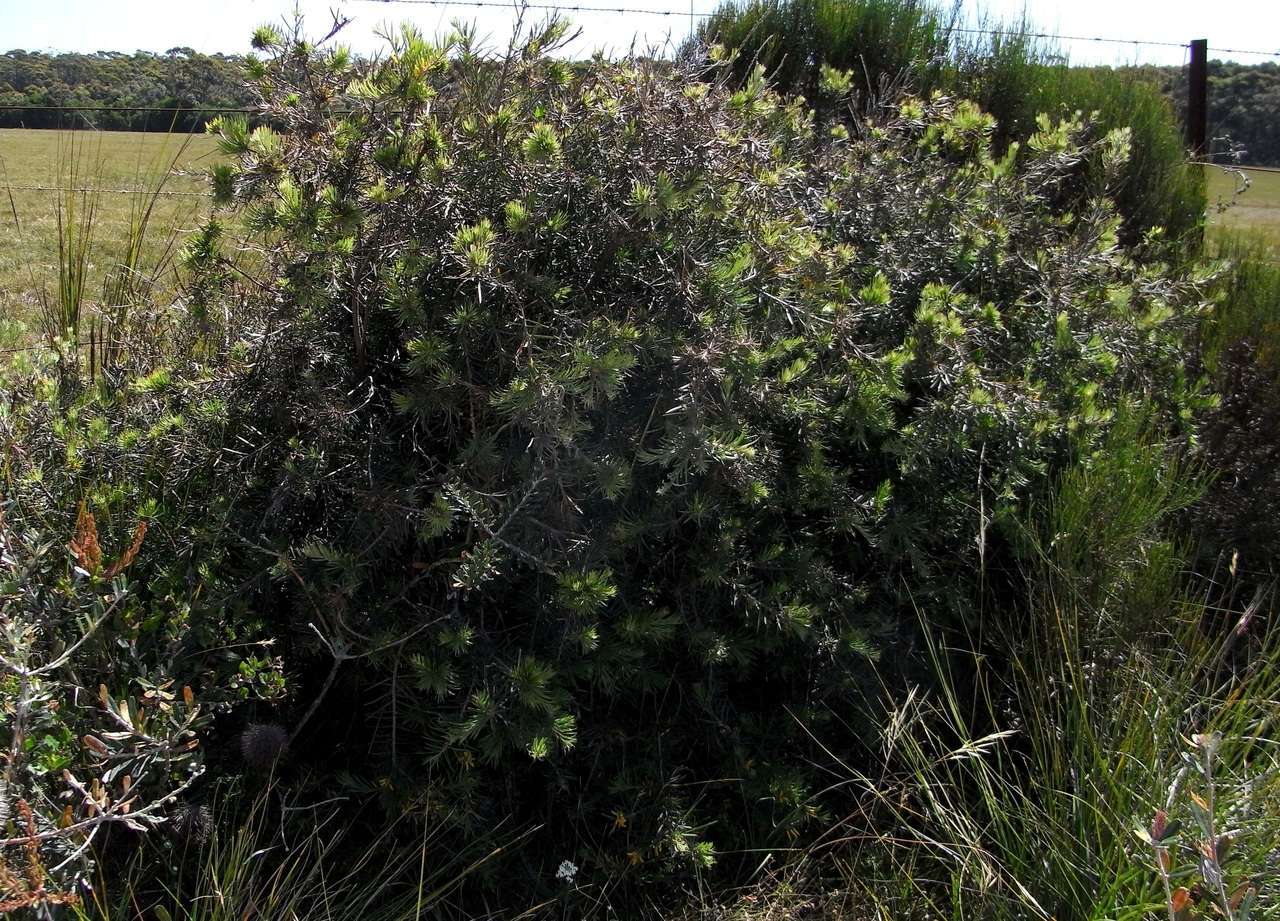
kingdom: Plantae
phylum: Tracheophyta
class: Magnoliopsida
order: Proteales
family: Proteaceae
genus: Persoonia
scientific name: Persoonia linearis
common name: Narrow-leaf geebung
